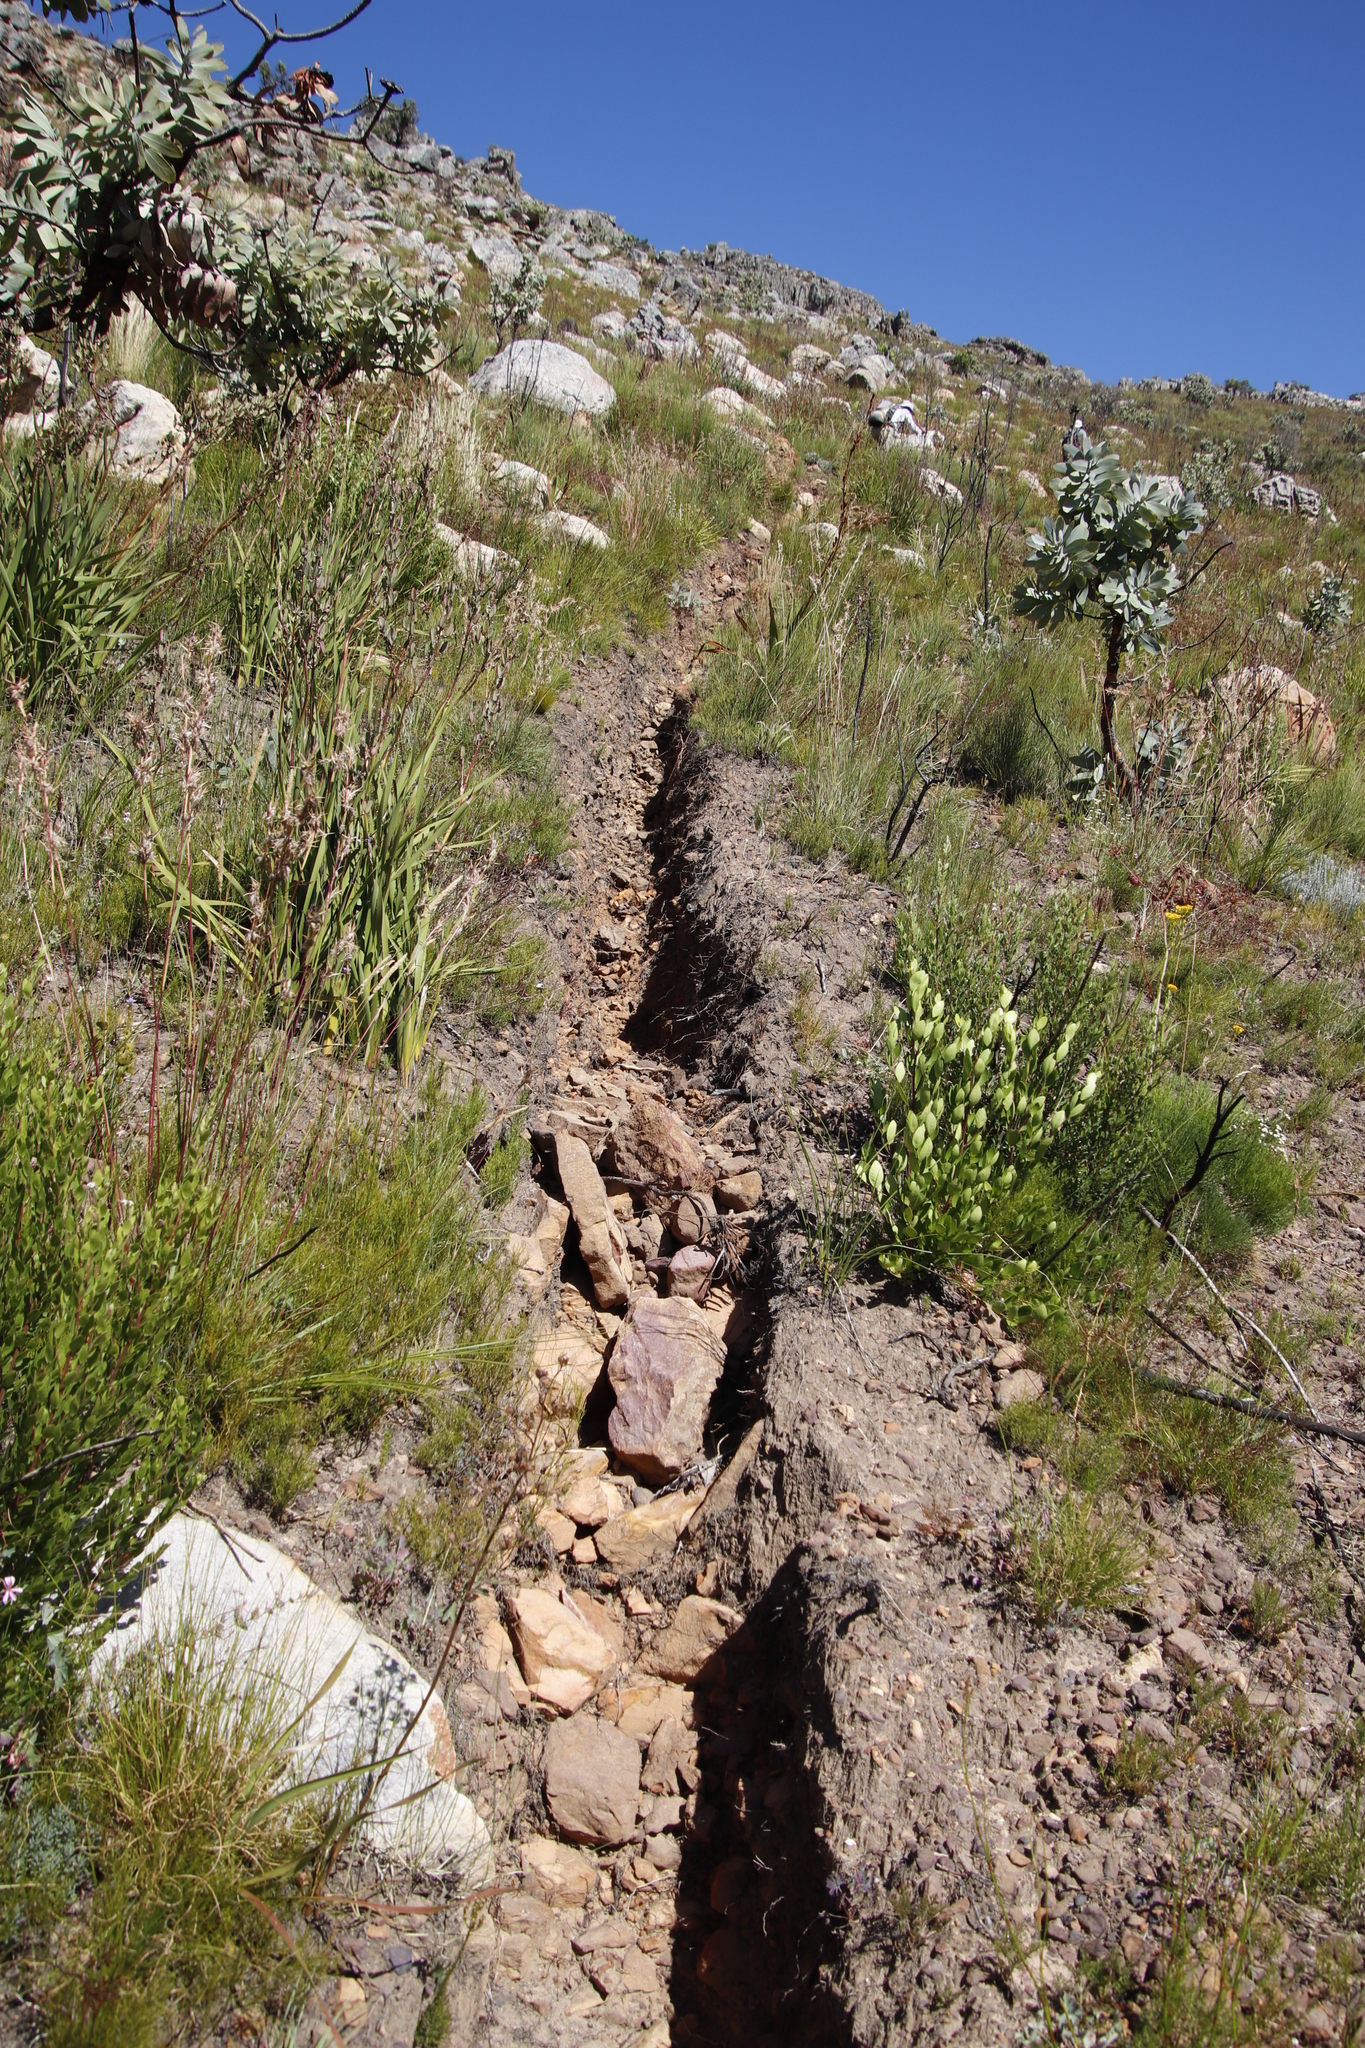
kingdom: Plantae
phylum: Tracheophyta
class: Magnoliopsida
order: Proteales
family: Proteaceae
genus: Protea
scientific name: Protea nitida
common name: Tree protea
